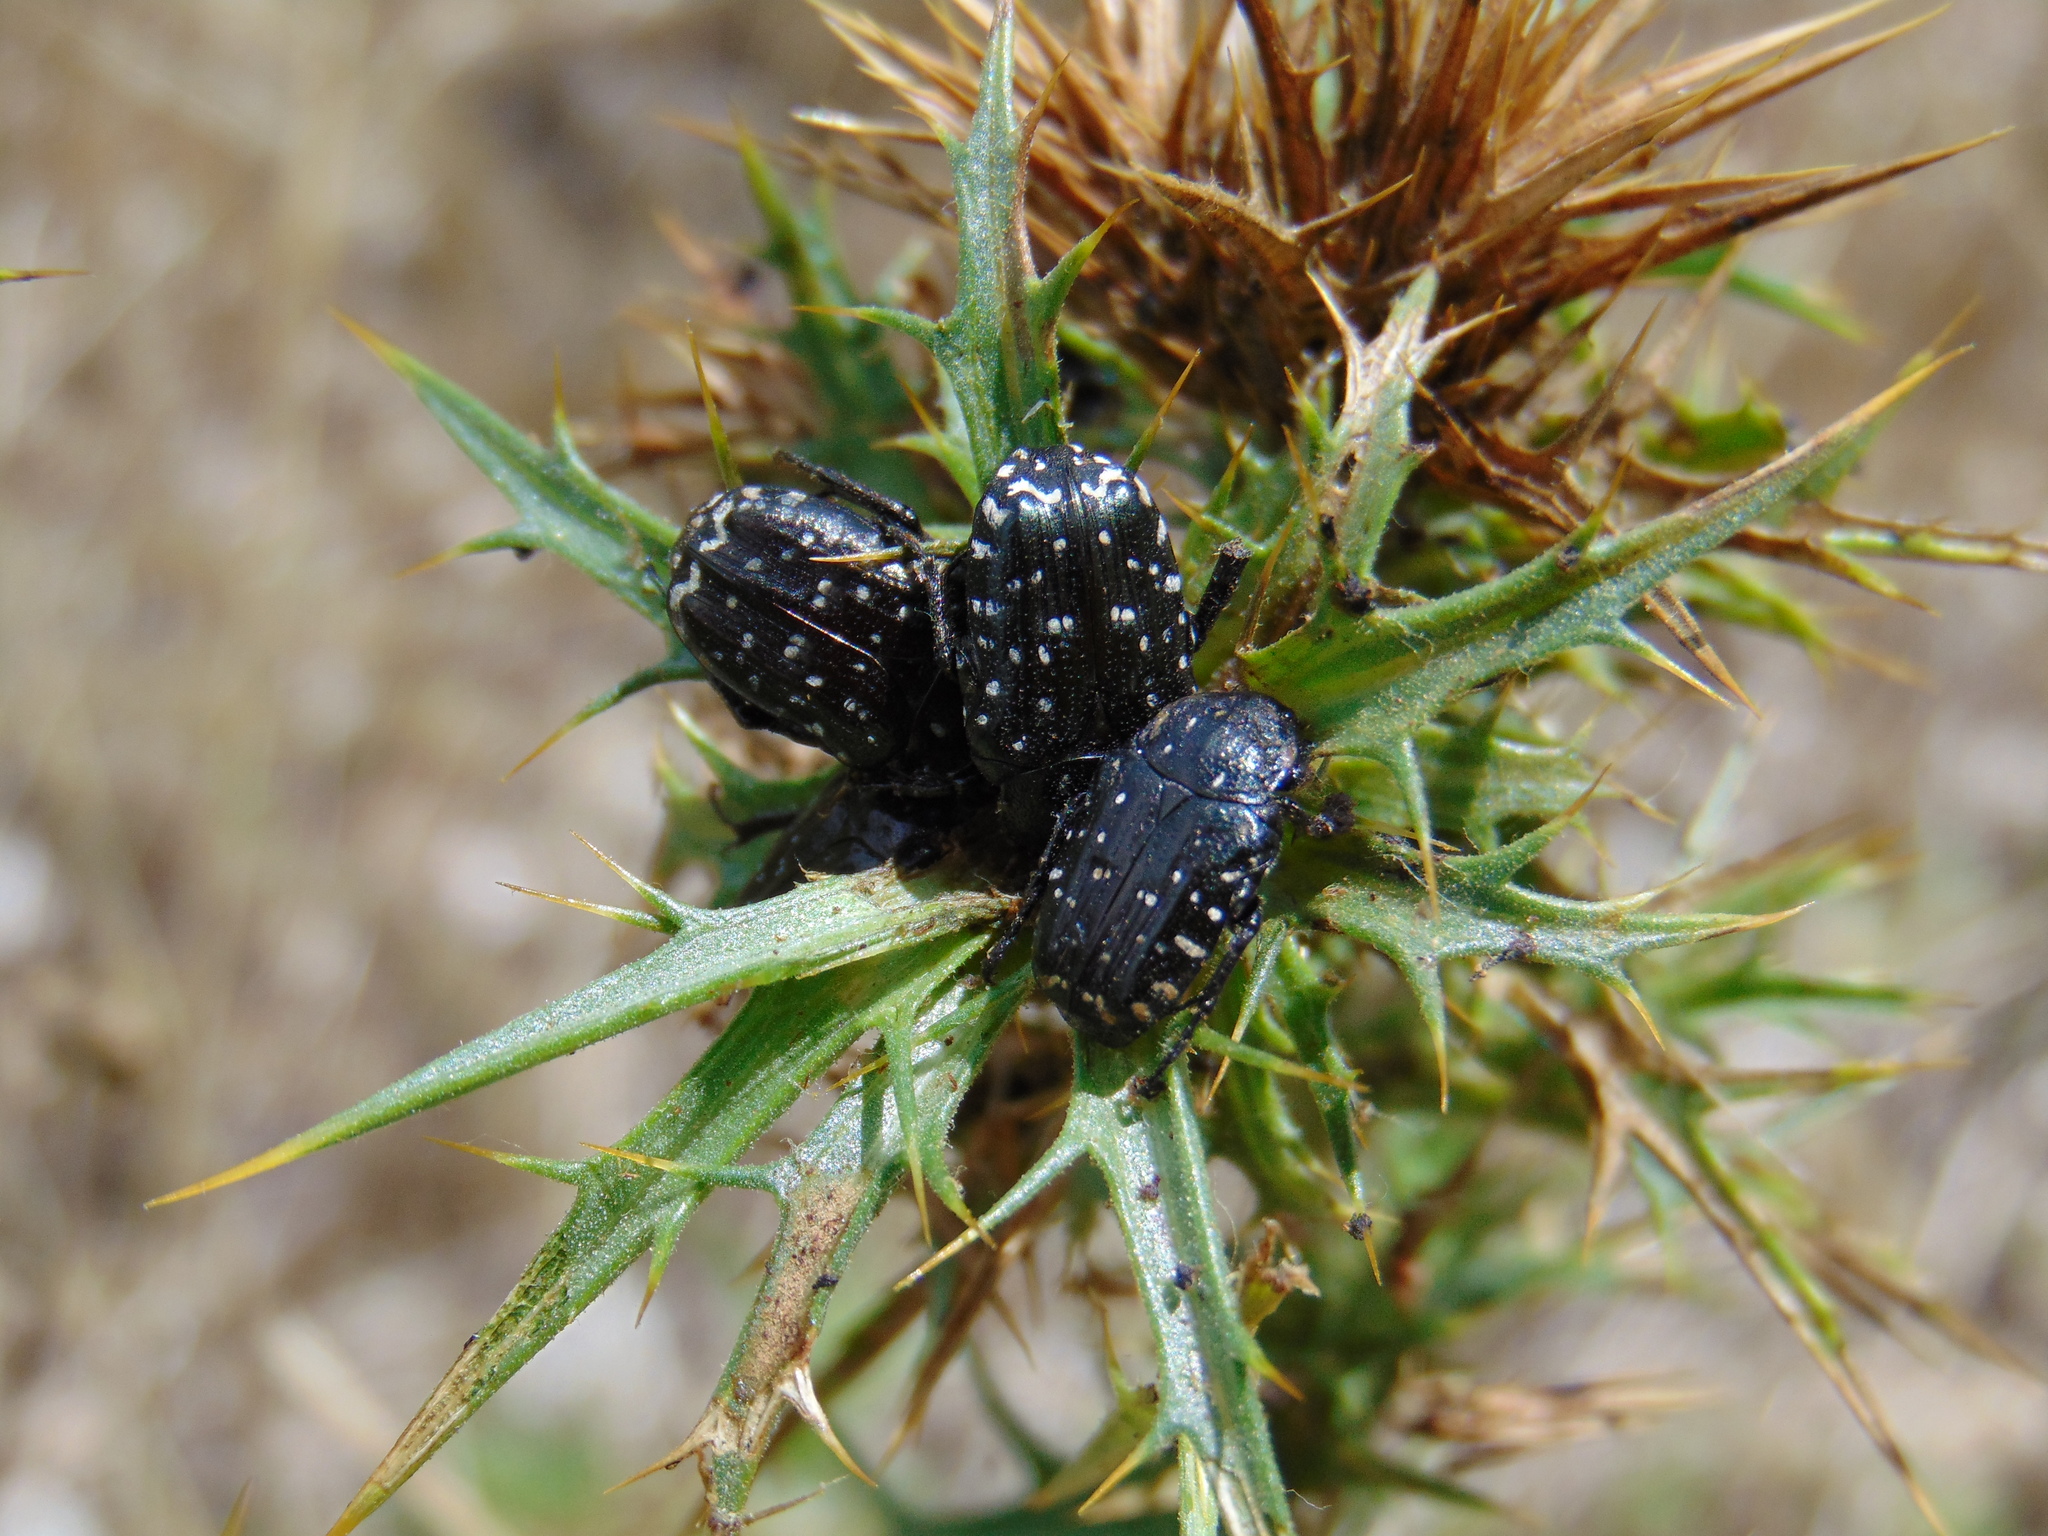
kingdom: Animalia
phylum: Arthropoda
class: Insecta
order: Coleoptera
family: Scarabaeidae
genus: Oxythyrea
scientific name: Oxythyrea funesta
